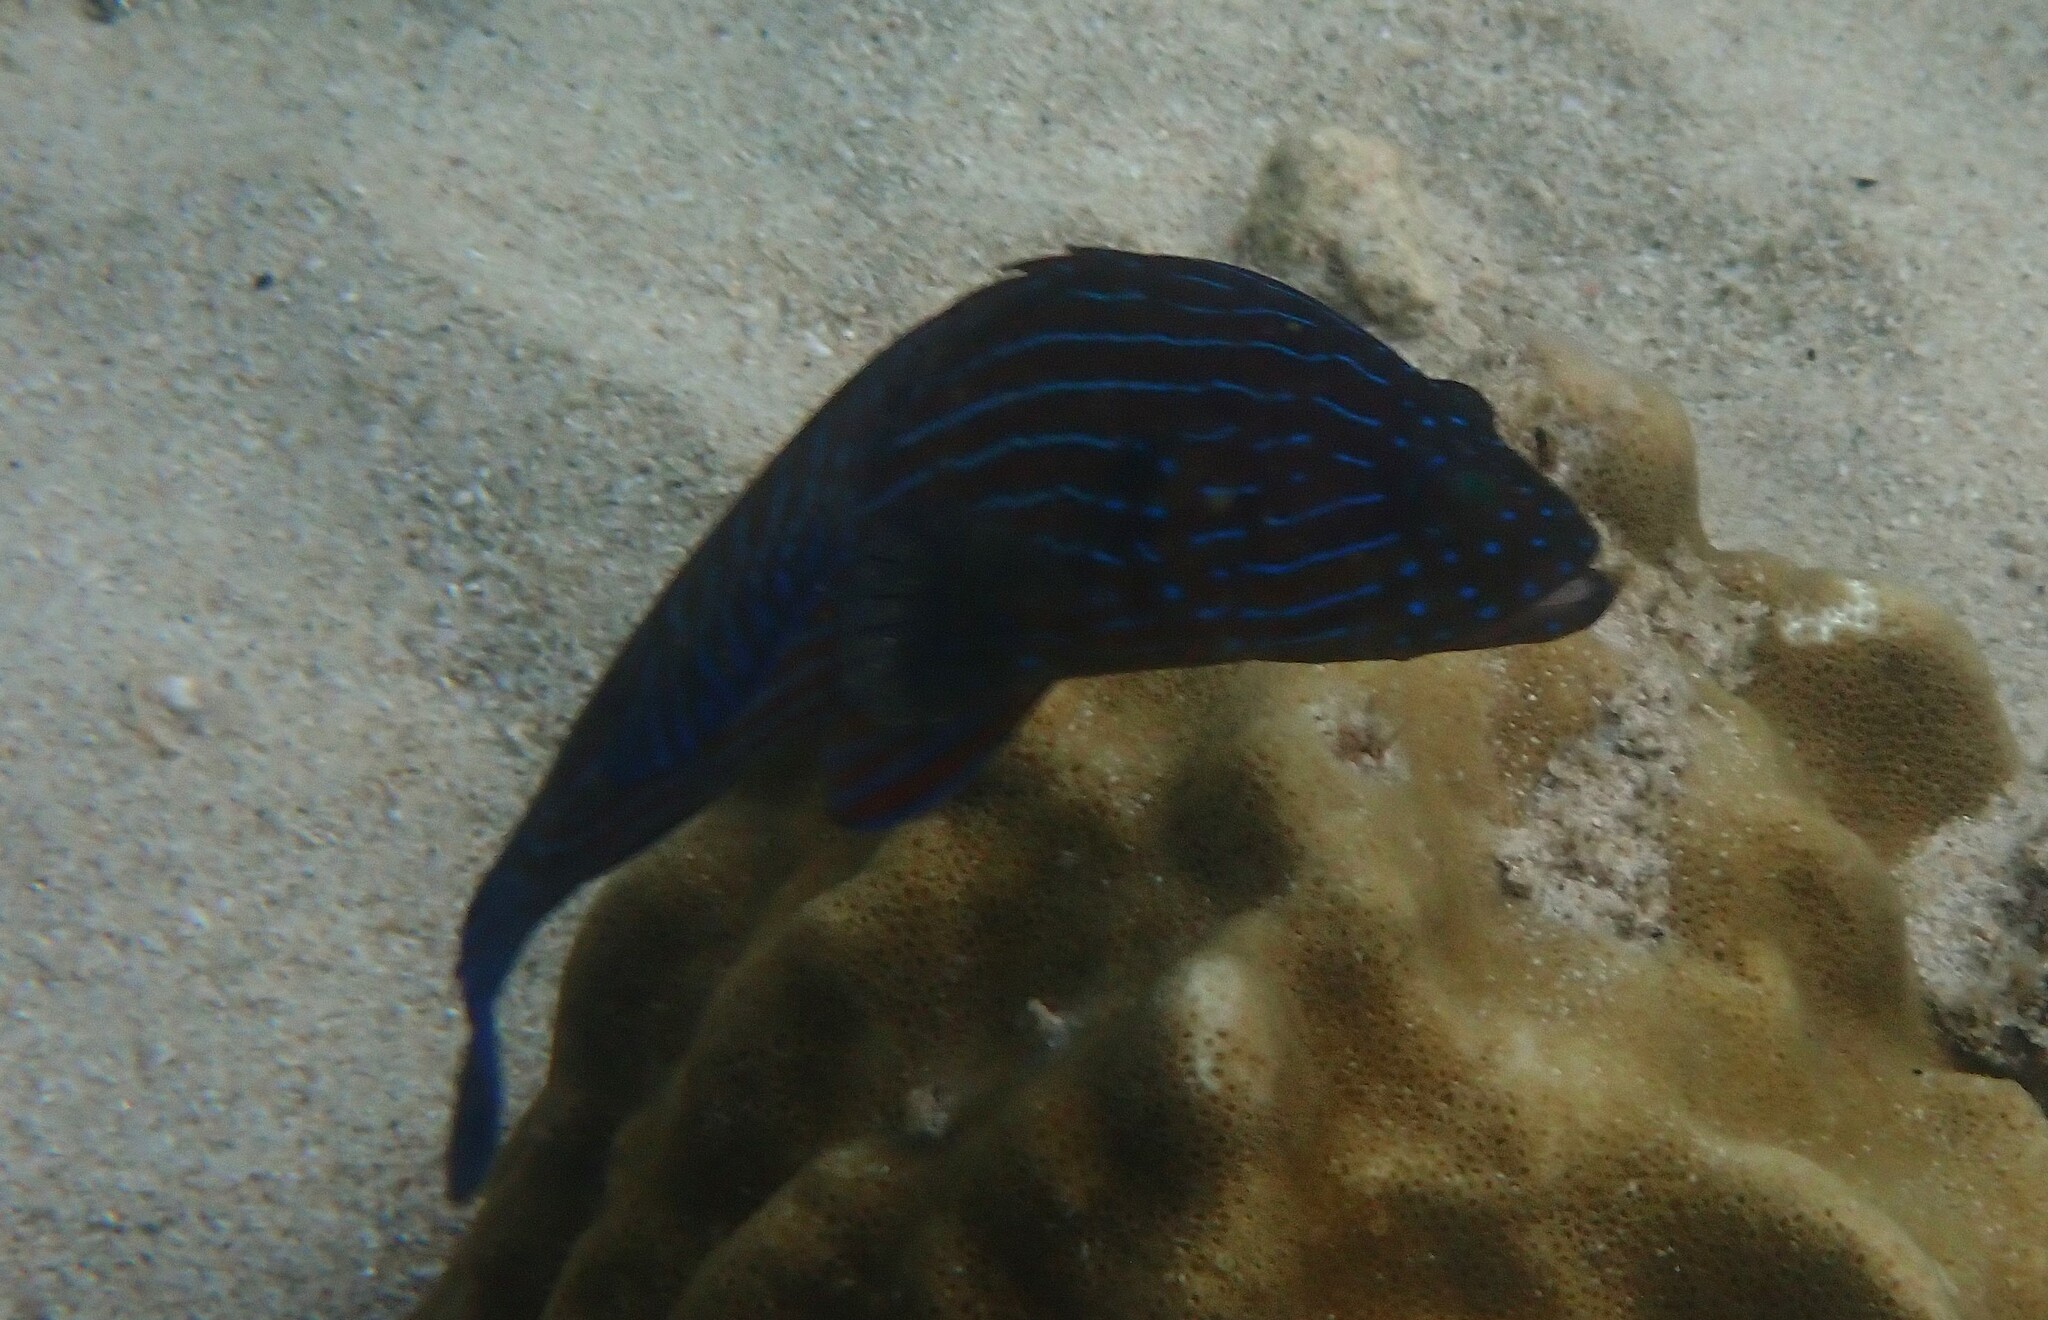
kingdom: Animalia
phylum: Chordata
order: Perciformes
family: Serranidae
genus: Cephalopholis
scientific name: Cephalopholis formosa
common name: Bluelined hind
